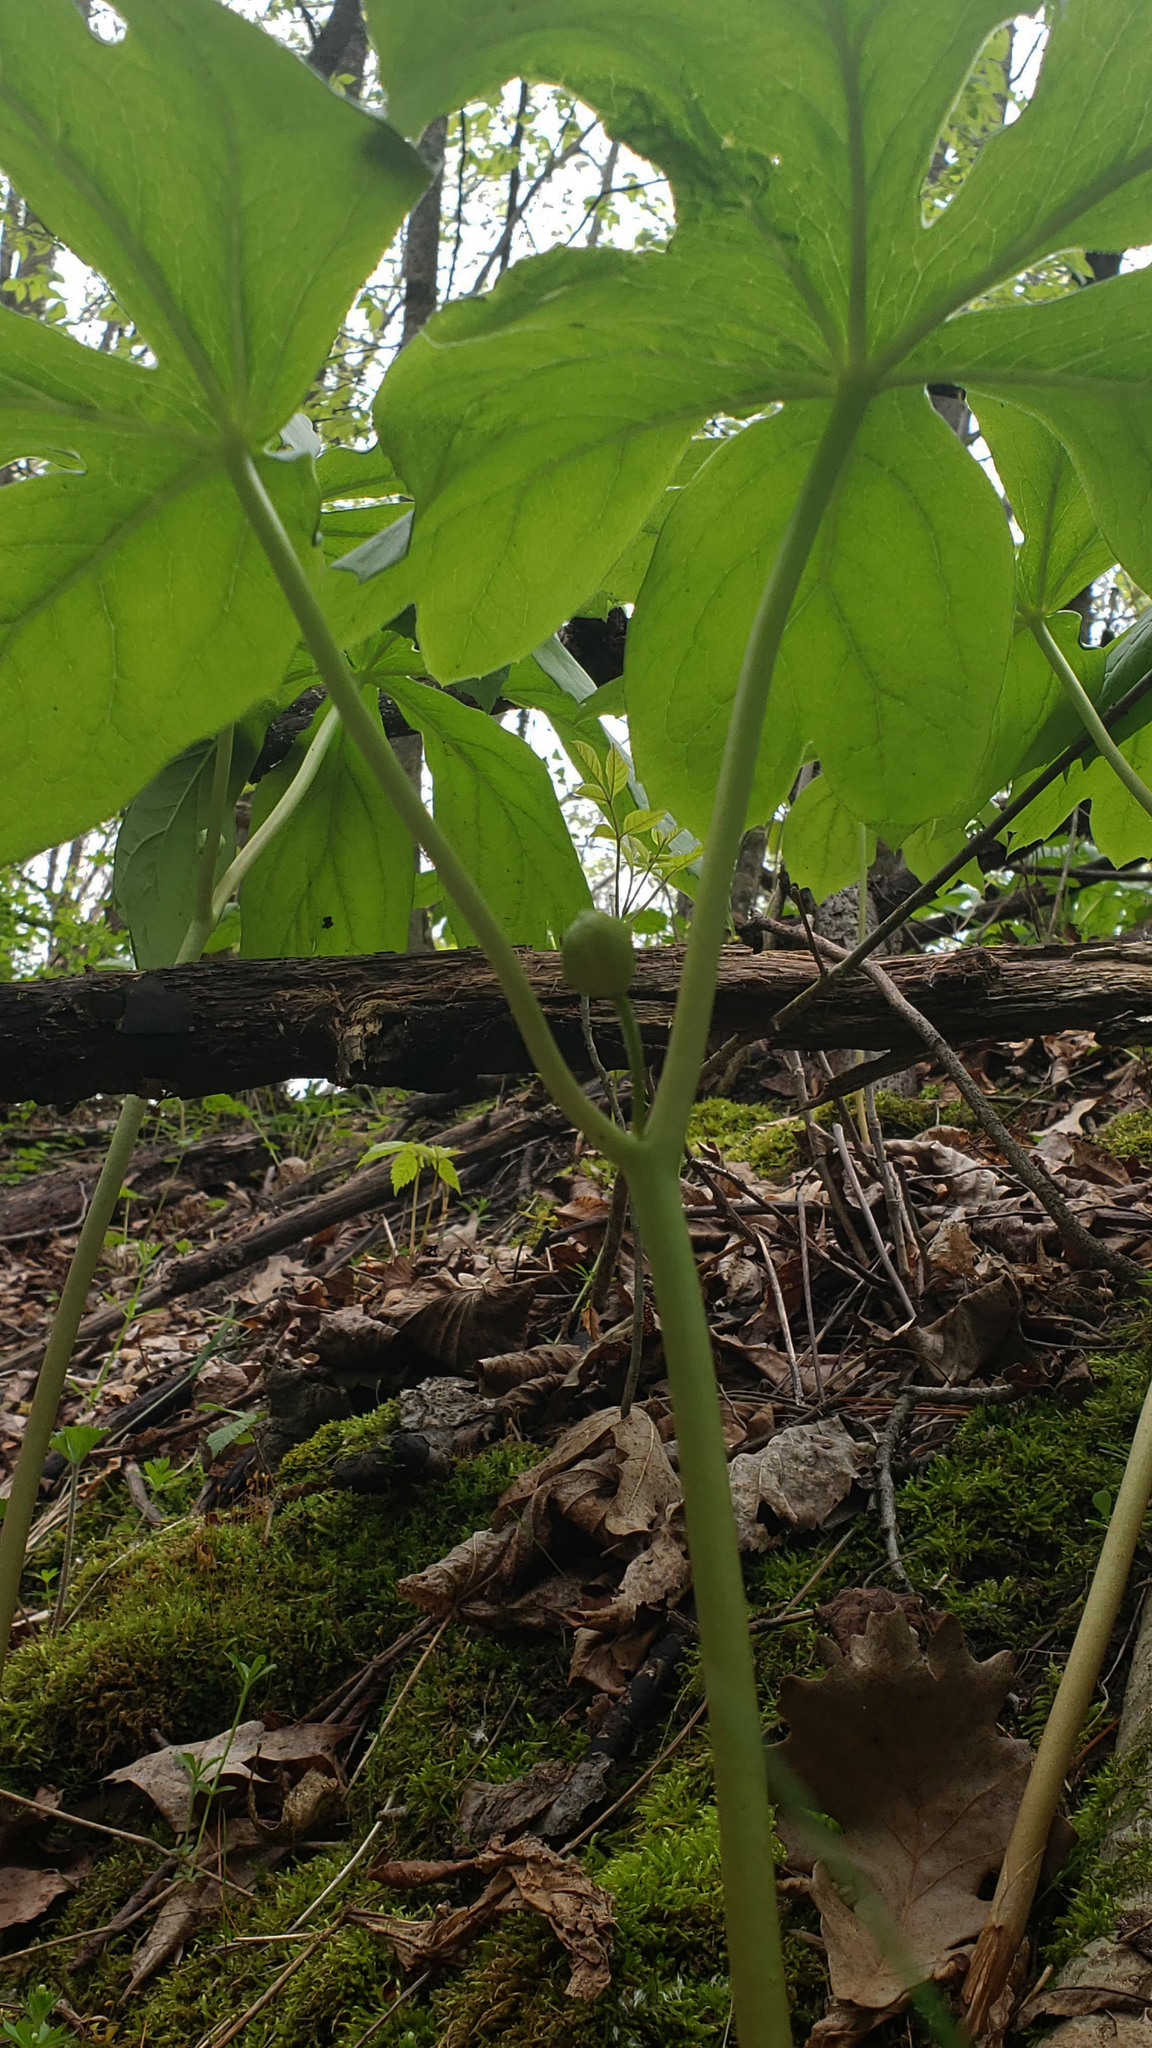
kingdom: Plantae
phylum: Tracheophyta
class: Magnoliopsida
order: Ranunculales
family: Berberidaceae
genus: Podophyllum
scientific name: Podophyllum peltatum
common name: Wild mandrake
